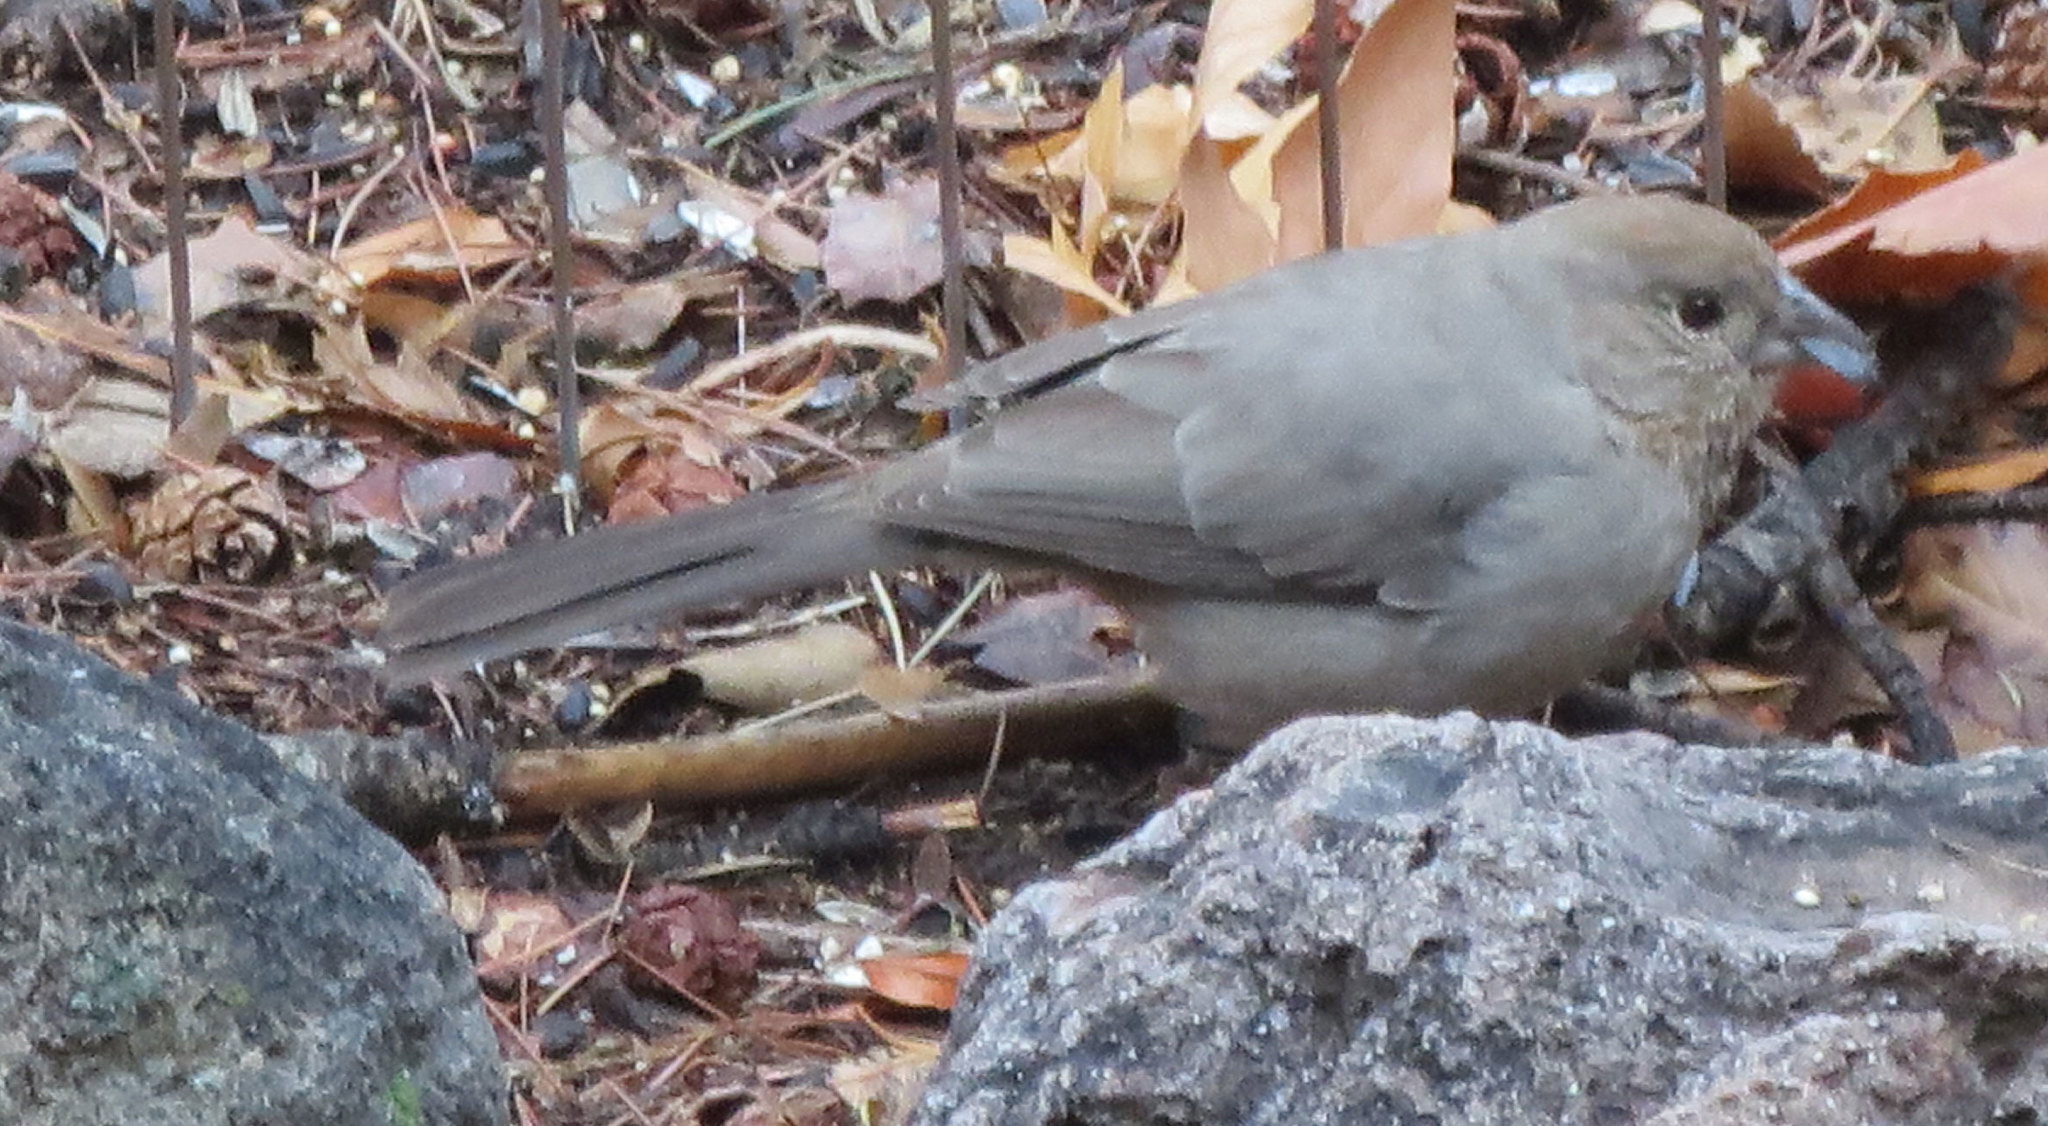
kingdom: Animalia
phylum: Chordata
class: Aves
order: Passeriformes
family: Passerellidae
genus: Melozone
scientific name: Melozone fusca
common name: Canyon towhee
